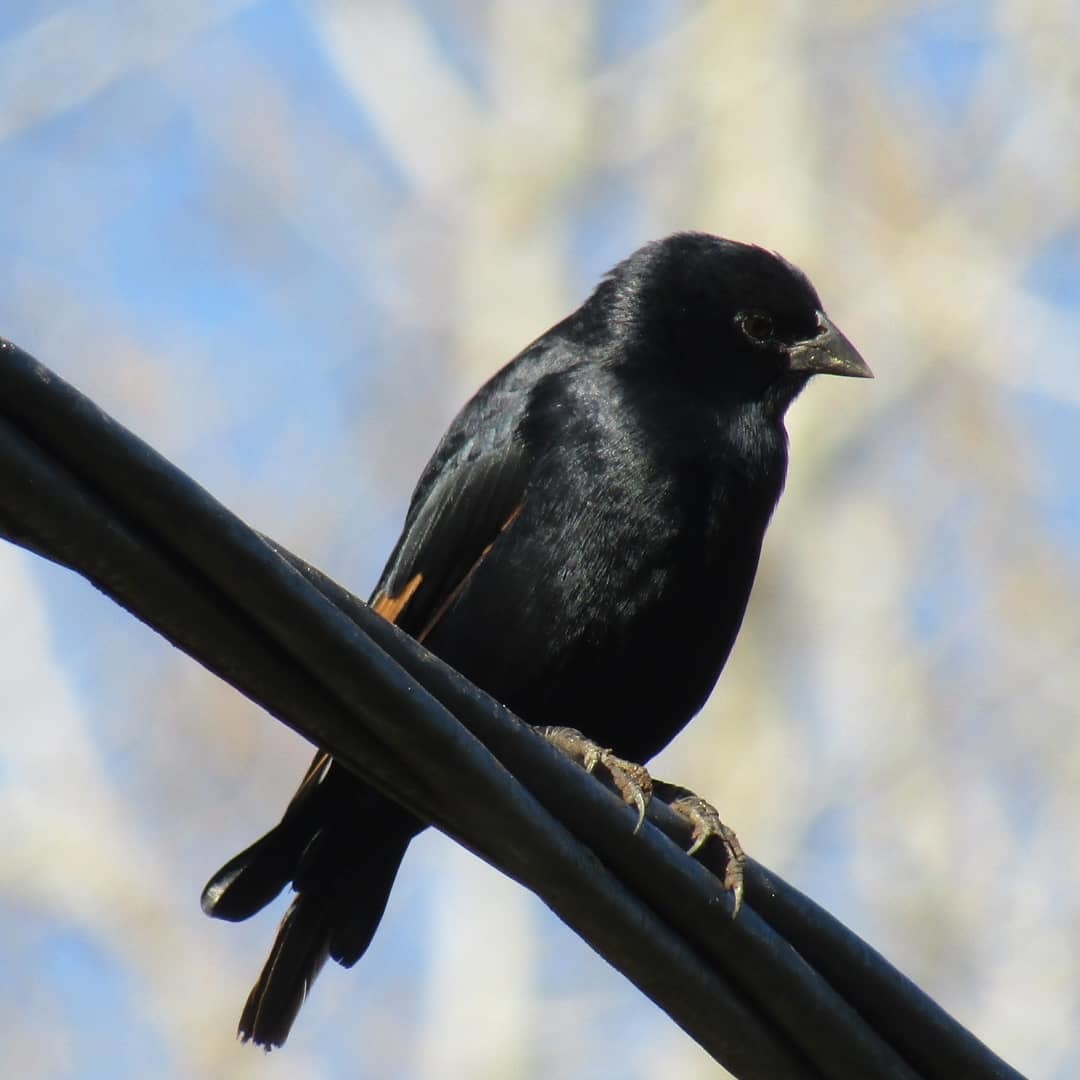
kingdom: Animalia
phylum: Chordata
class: Aves
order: Passeriformes
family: Icteridae
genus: Molothrus
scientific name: Molothrus rufoaxillaris
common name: Screaming cowbird
